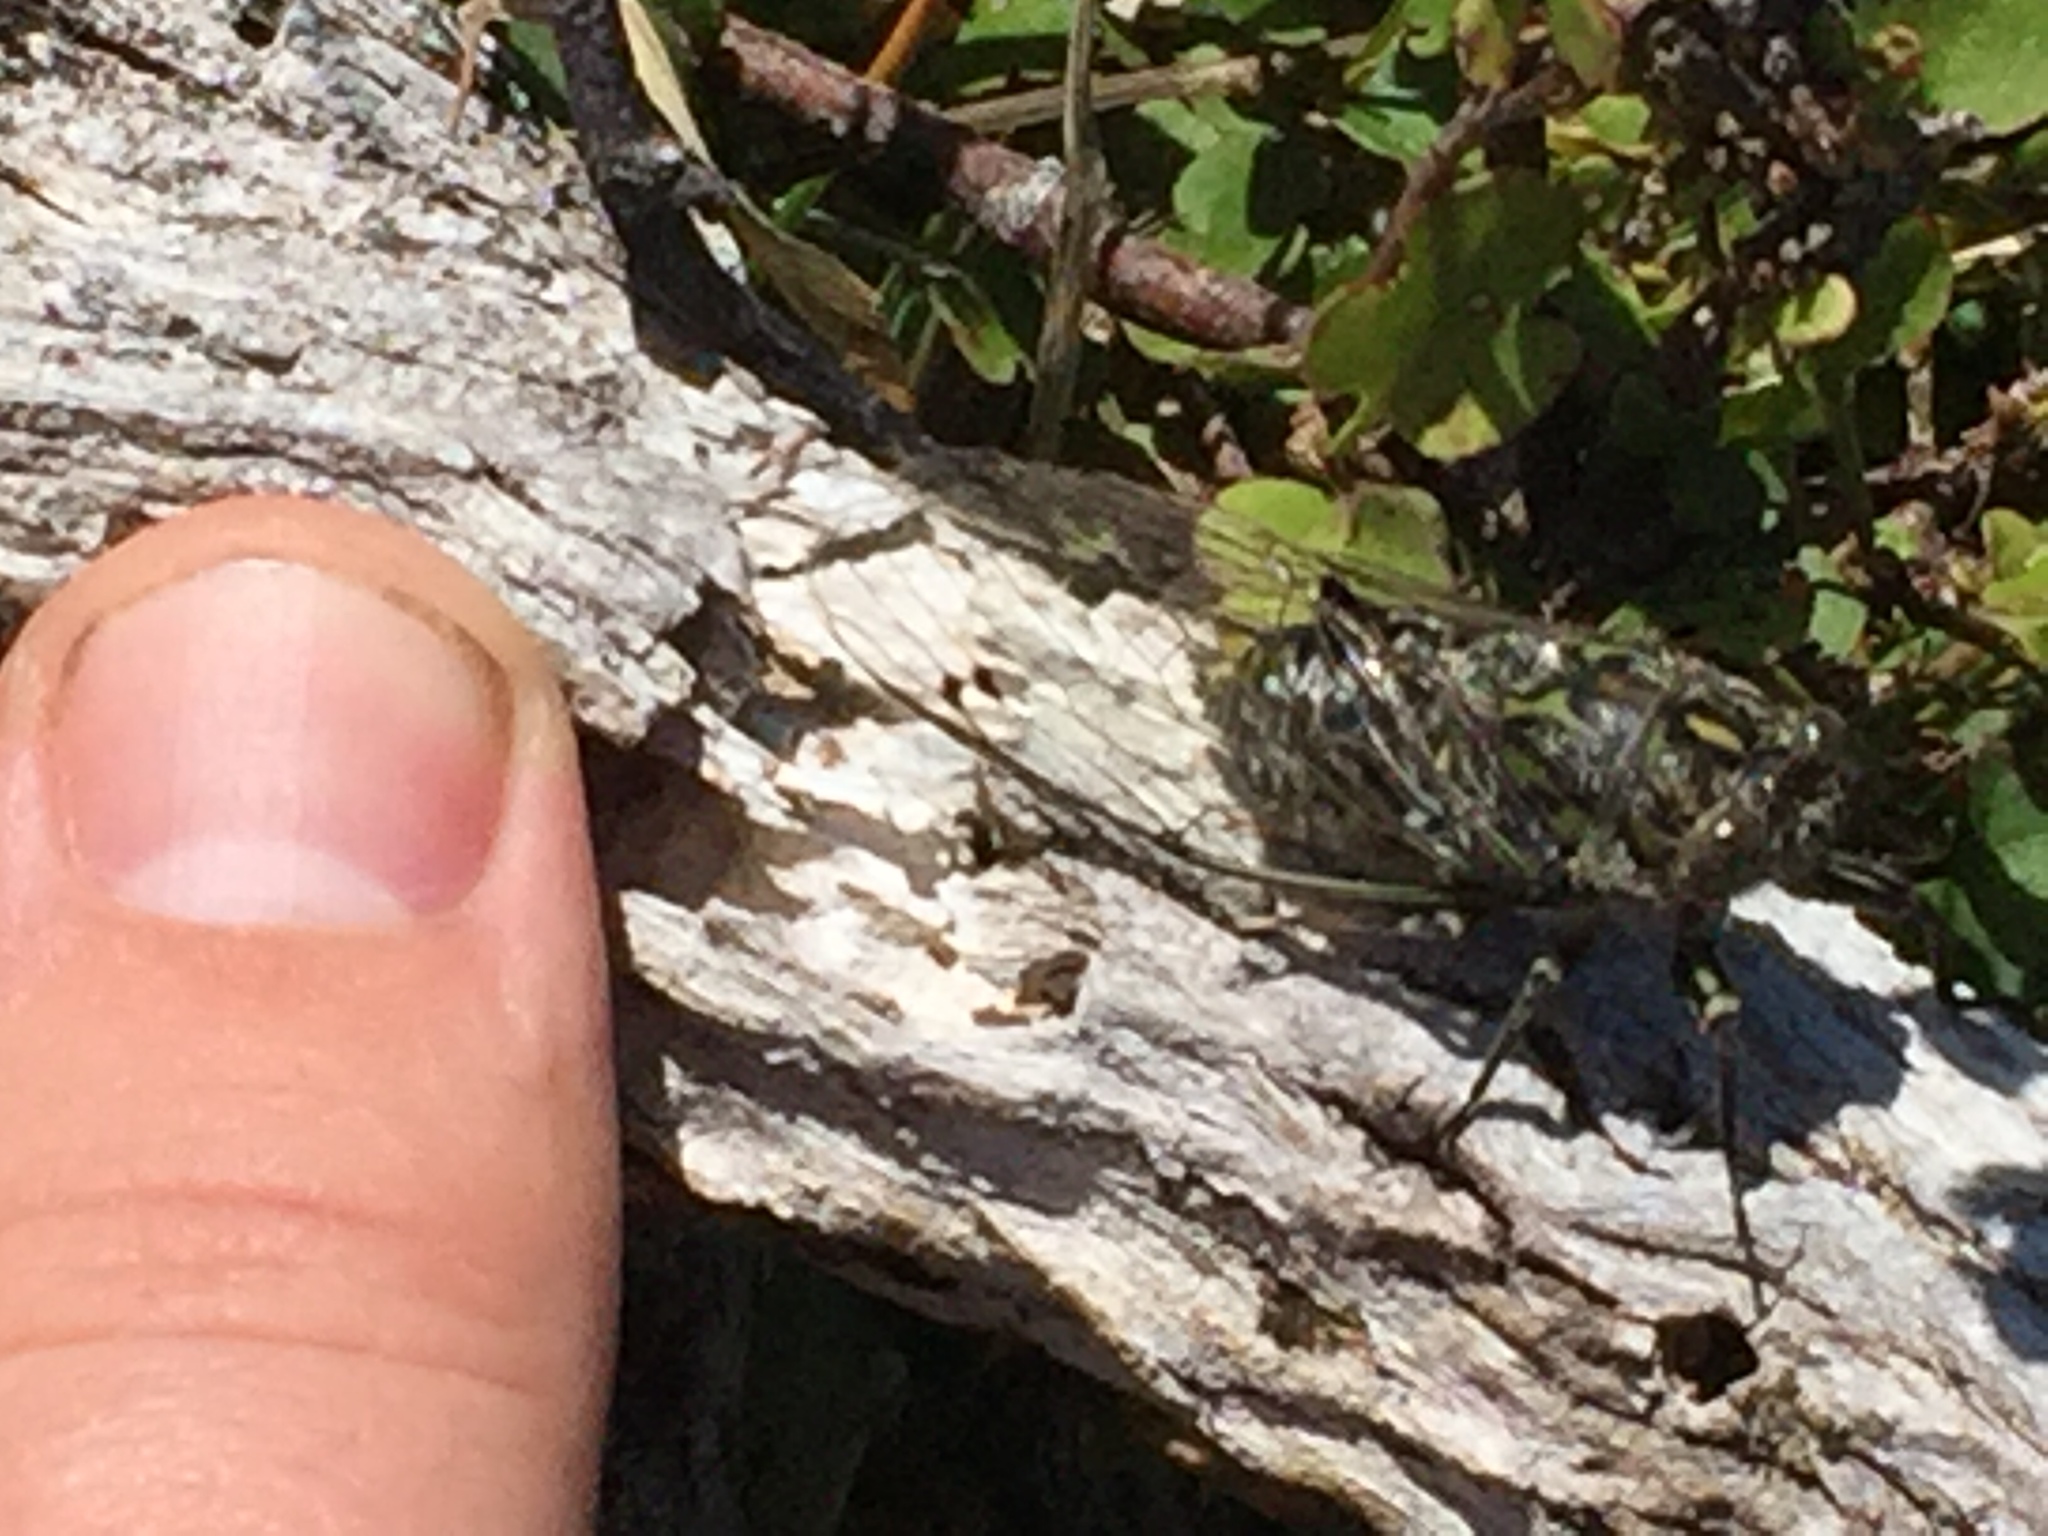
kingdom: Animalia
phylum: Arthropoda
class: Insecta
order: Hemiptera
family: Cicadidae
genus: Amphipsalta
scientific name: Amphipsalta cingulata
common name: Clapping cicada
